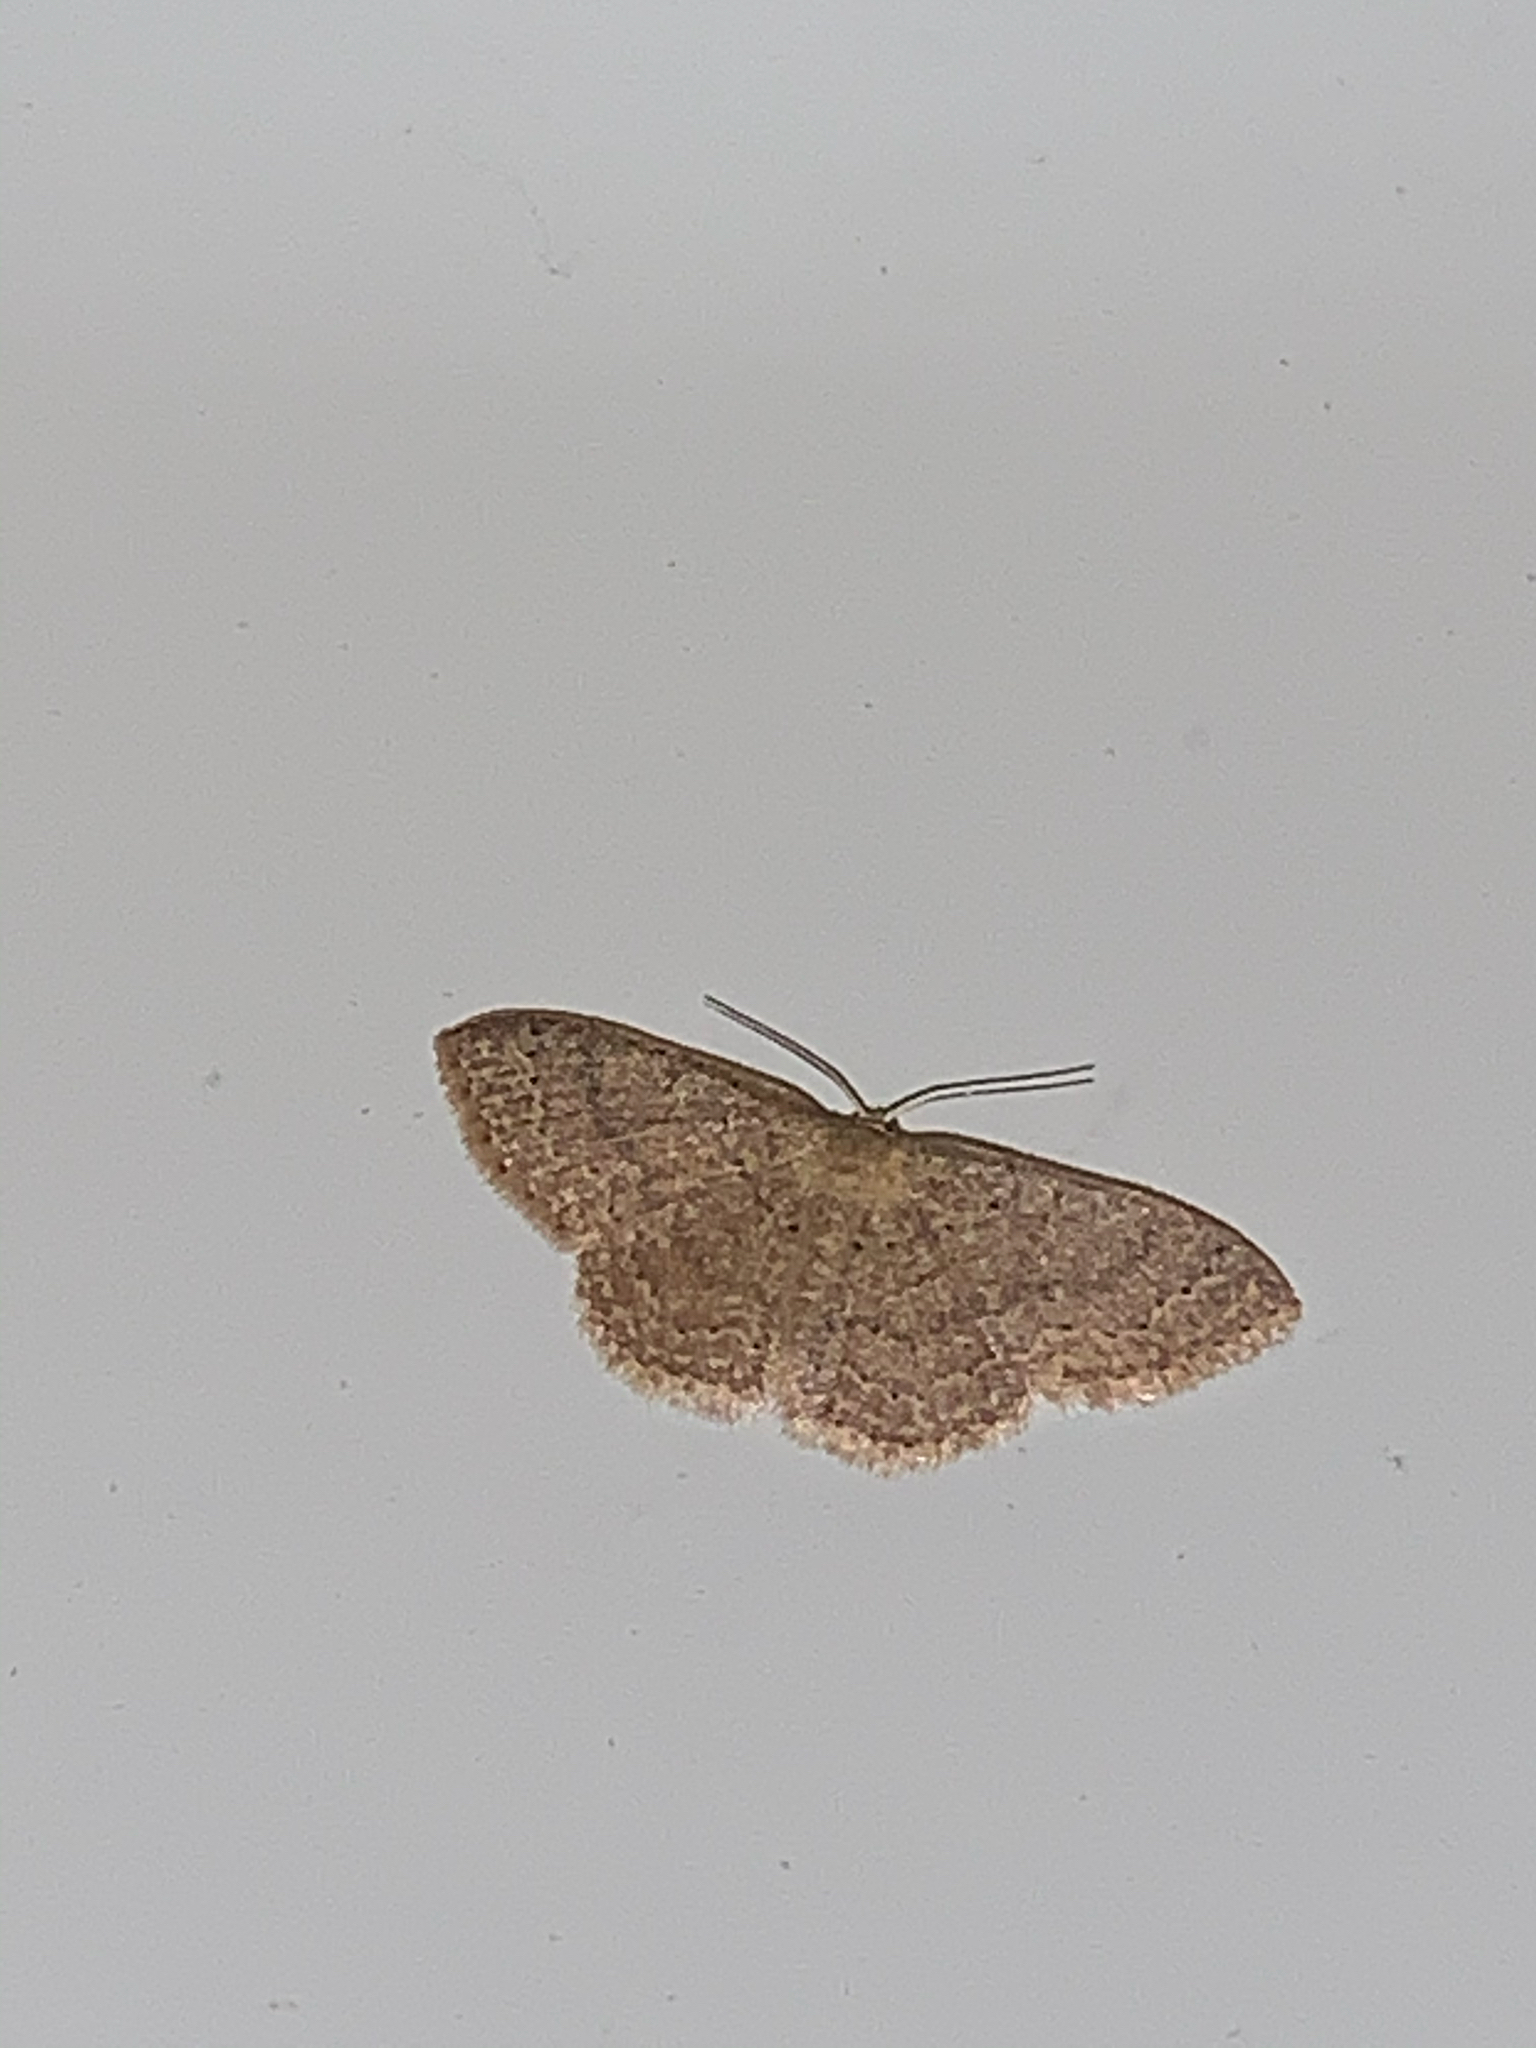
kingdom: Animalia
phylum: Arthropoda
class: Insecta
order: Lepidoptera
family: Geometridae
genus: Pleuroprucha
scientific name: Pleuroprucha insulsaria
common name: Common tan wave
